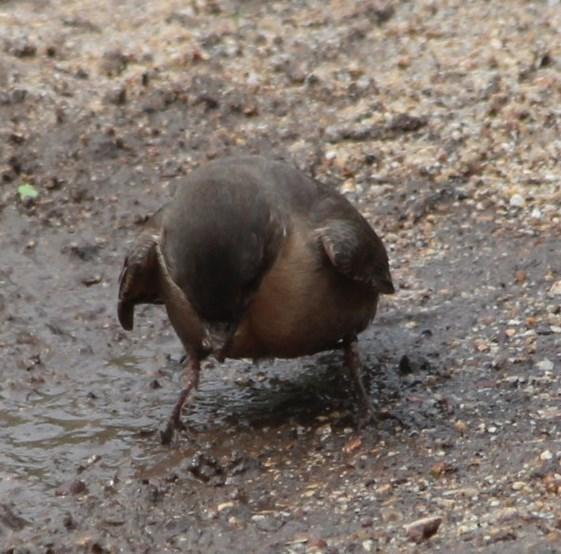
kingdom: Animalia
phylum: Chordata
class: Aves
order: Passeriformes
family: Hirundinidae
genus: Ptyonoprogne
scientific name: Ptyonoprogne fuligula
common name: Rock martin
